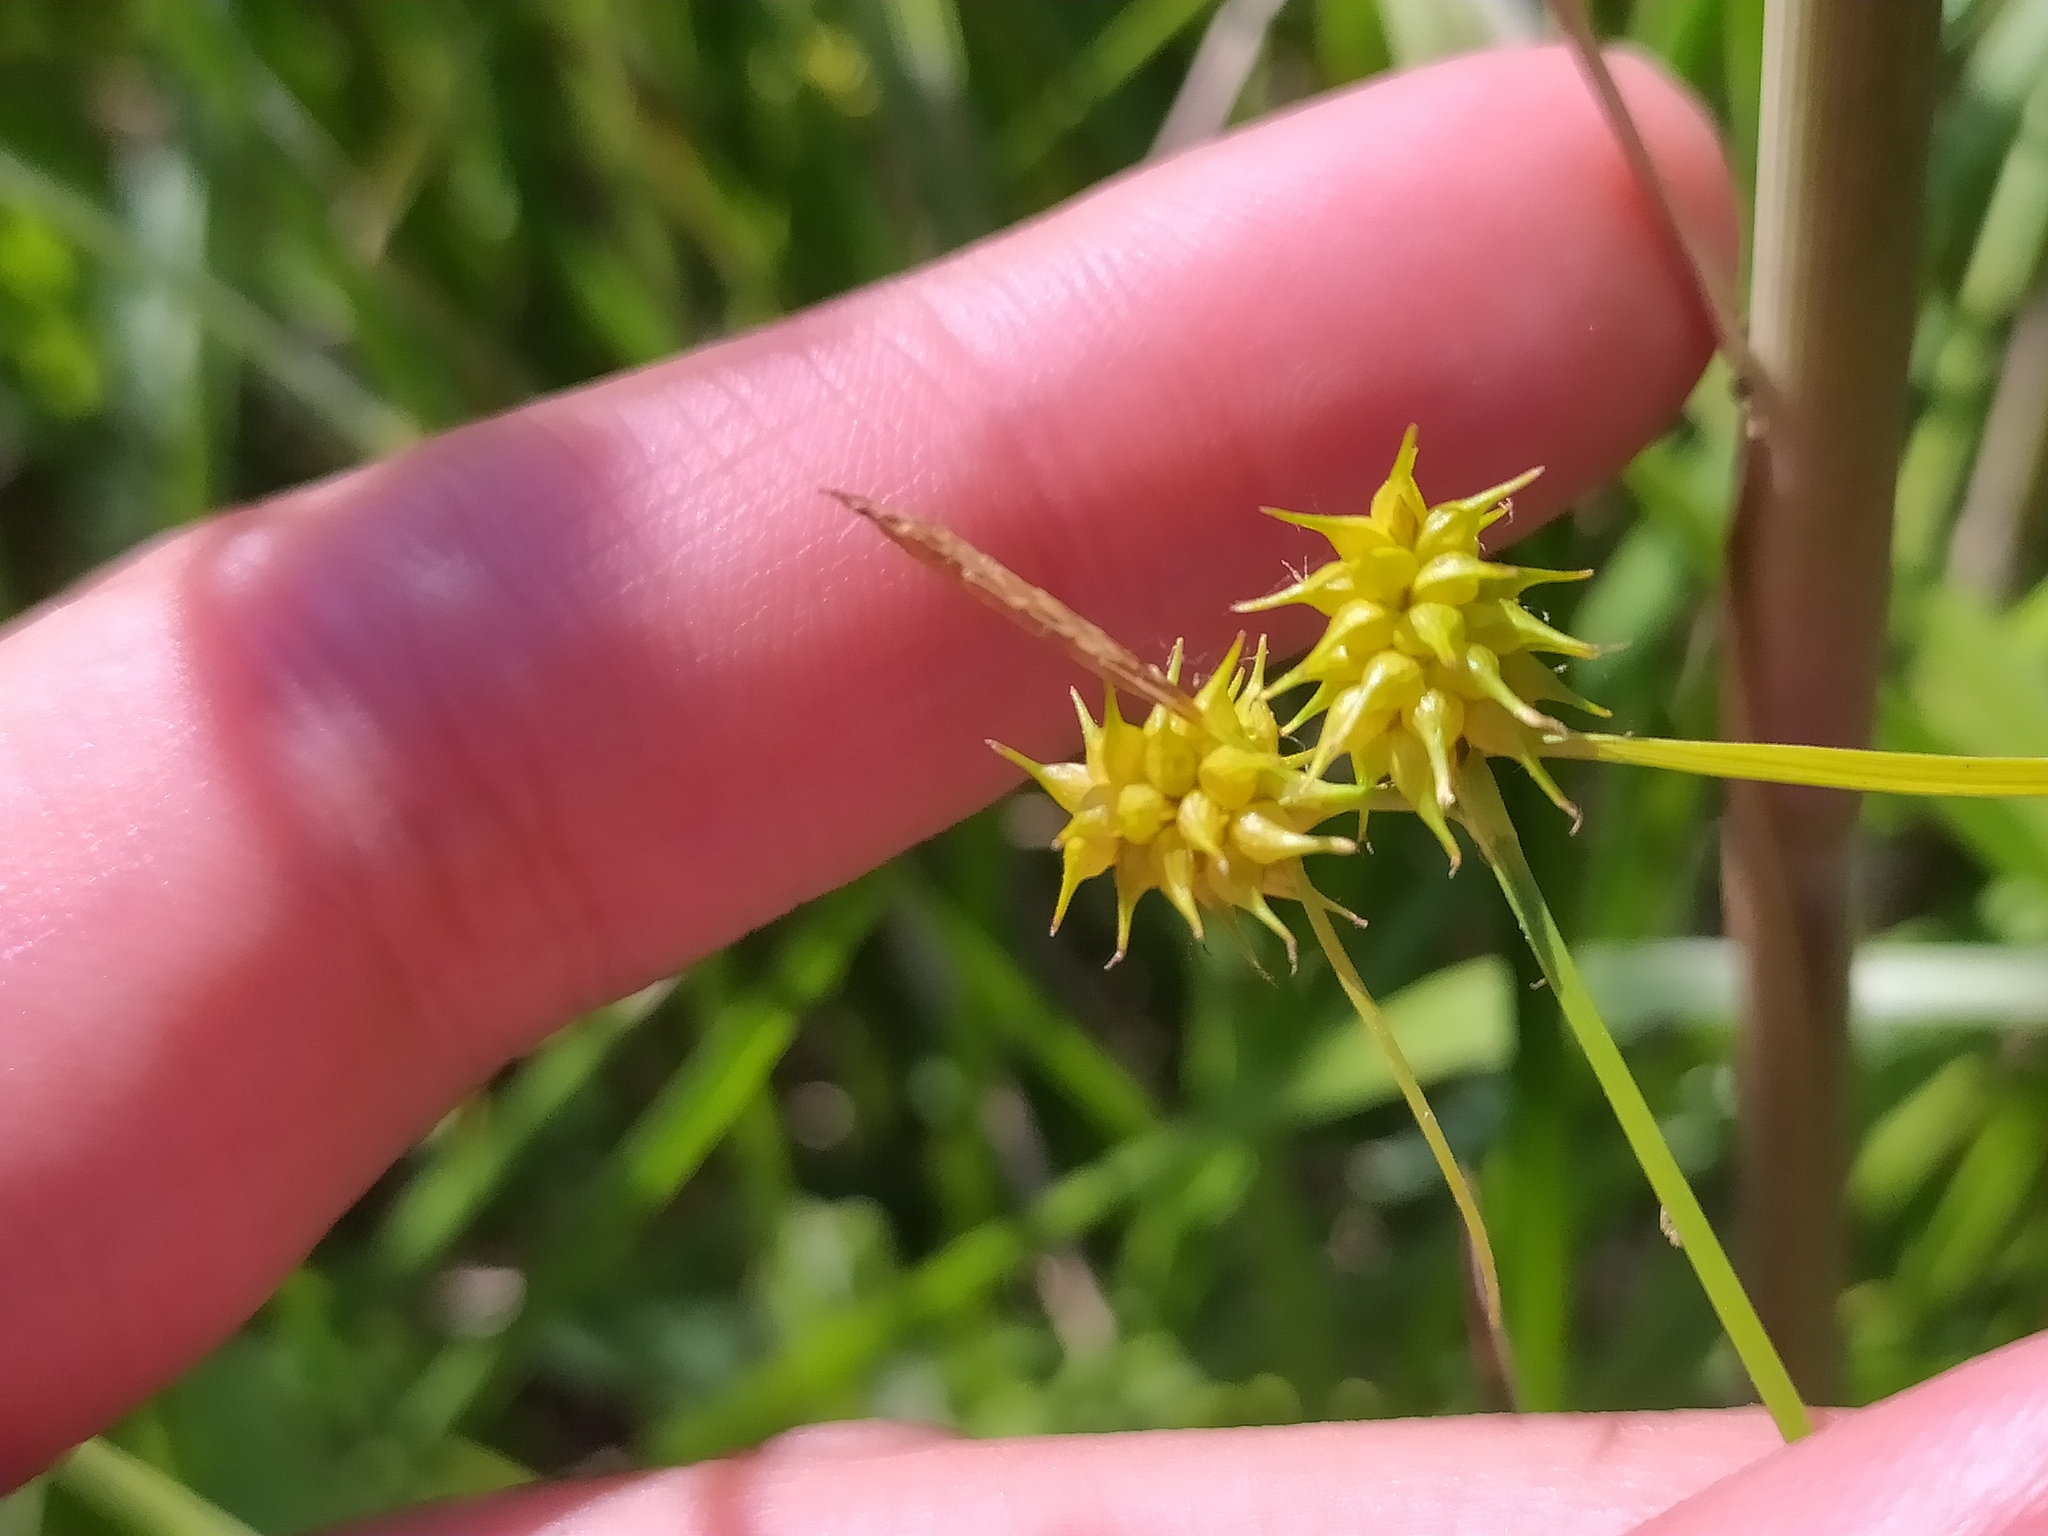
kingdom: Plantae
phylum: Tracheophyta
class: Liliopsida
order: Poales
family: Cyperaceae
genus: Carex
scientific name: Carex lepidocarpa
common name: Long-stalked yellow-sedge
